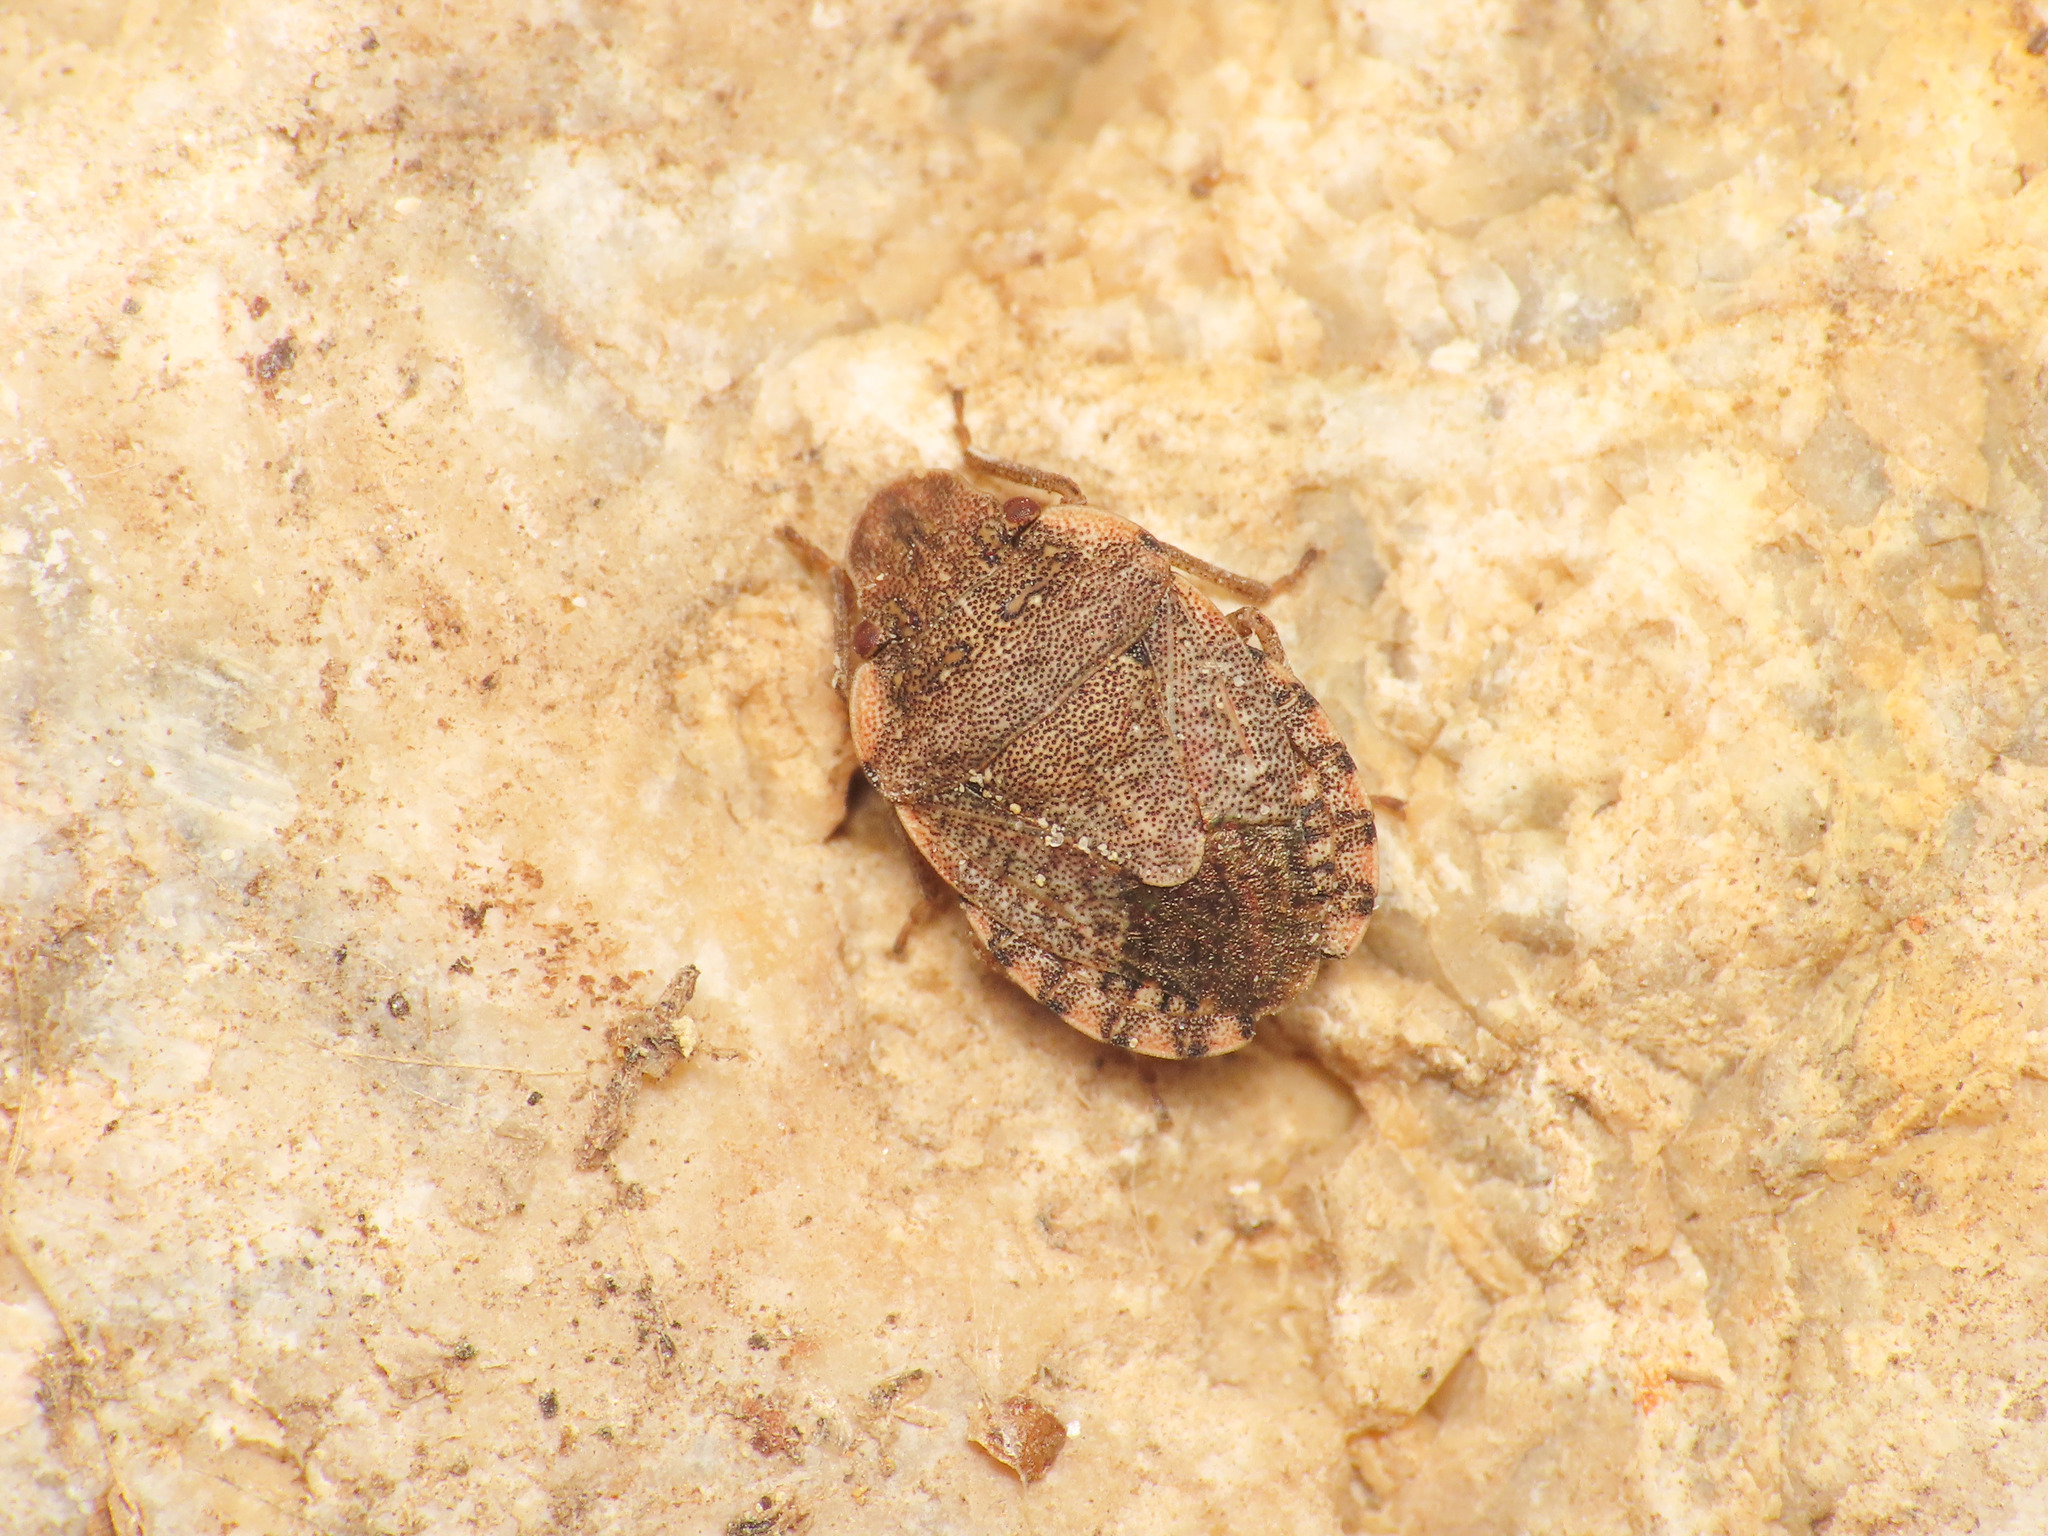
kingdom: Animalia
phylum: Arthropoda
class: Insecta
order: Hemiptera
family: Pentatomidae
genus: Sciocoris
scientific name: Sciocoris sideritidis
